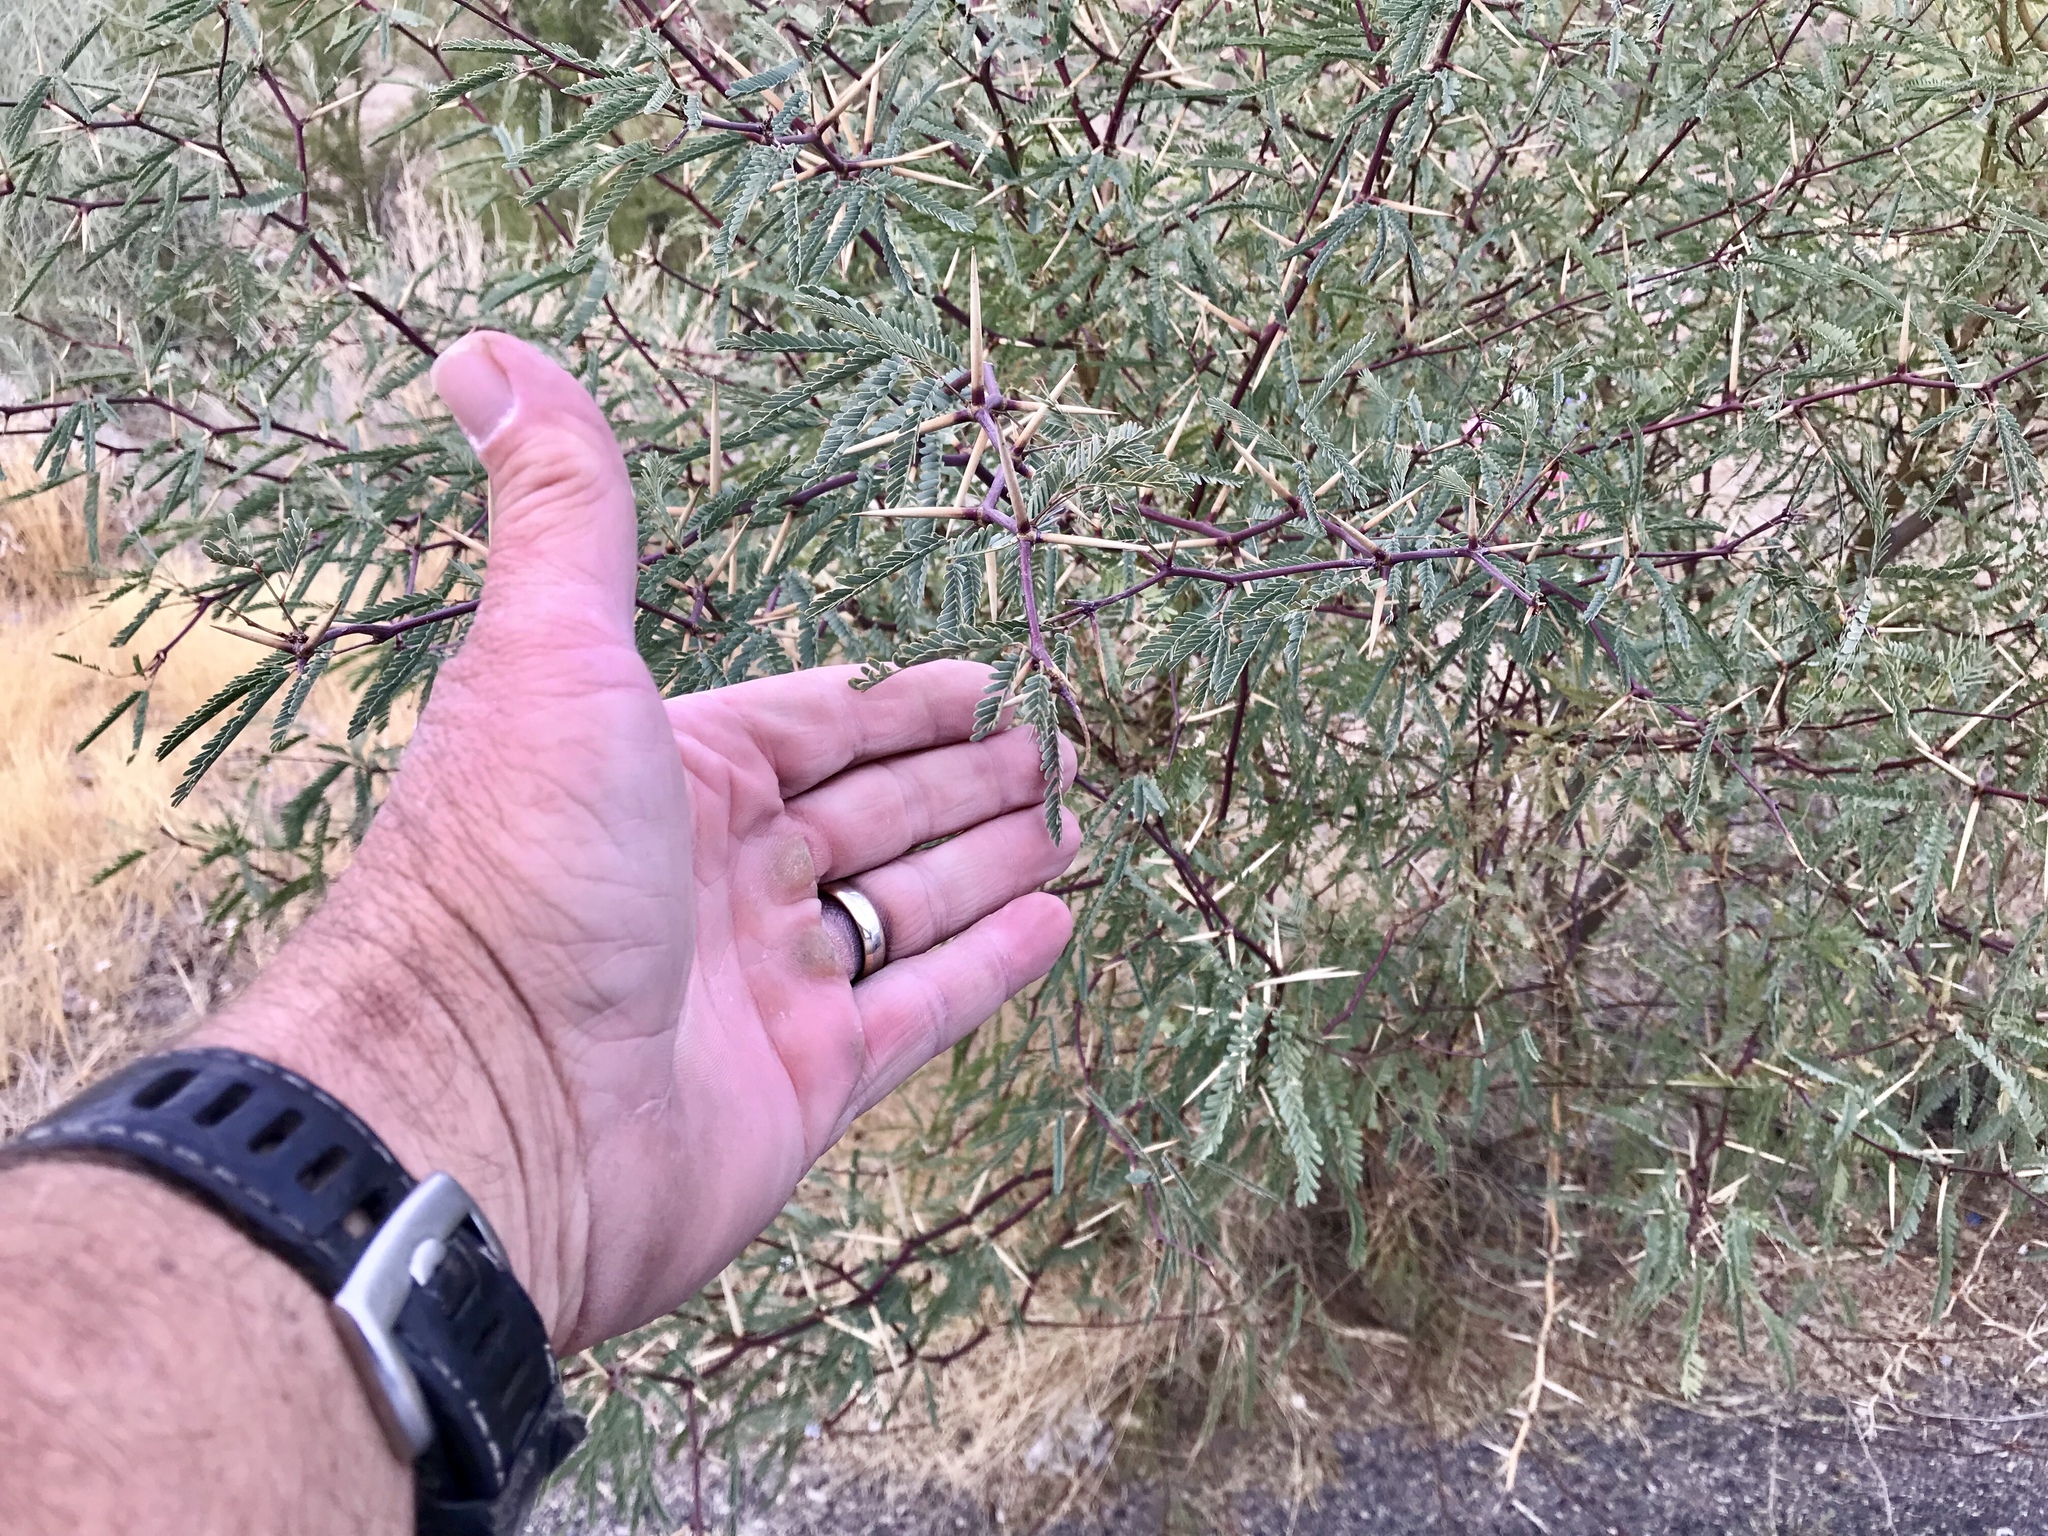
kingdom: Plantae
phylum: Tracheophyta
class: Magnoliopsida
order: Fabales
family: Fabaceae
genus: Prosopis
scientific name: Prosopis glandulosa
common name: Honey mesquite
